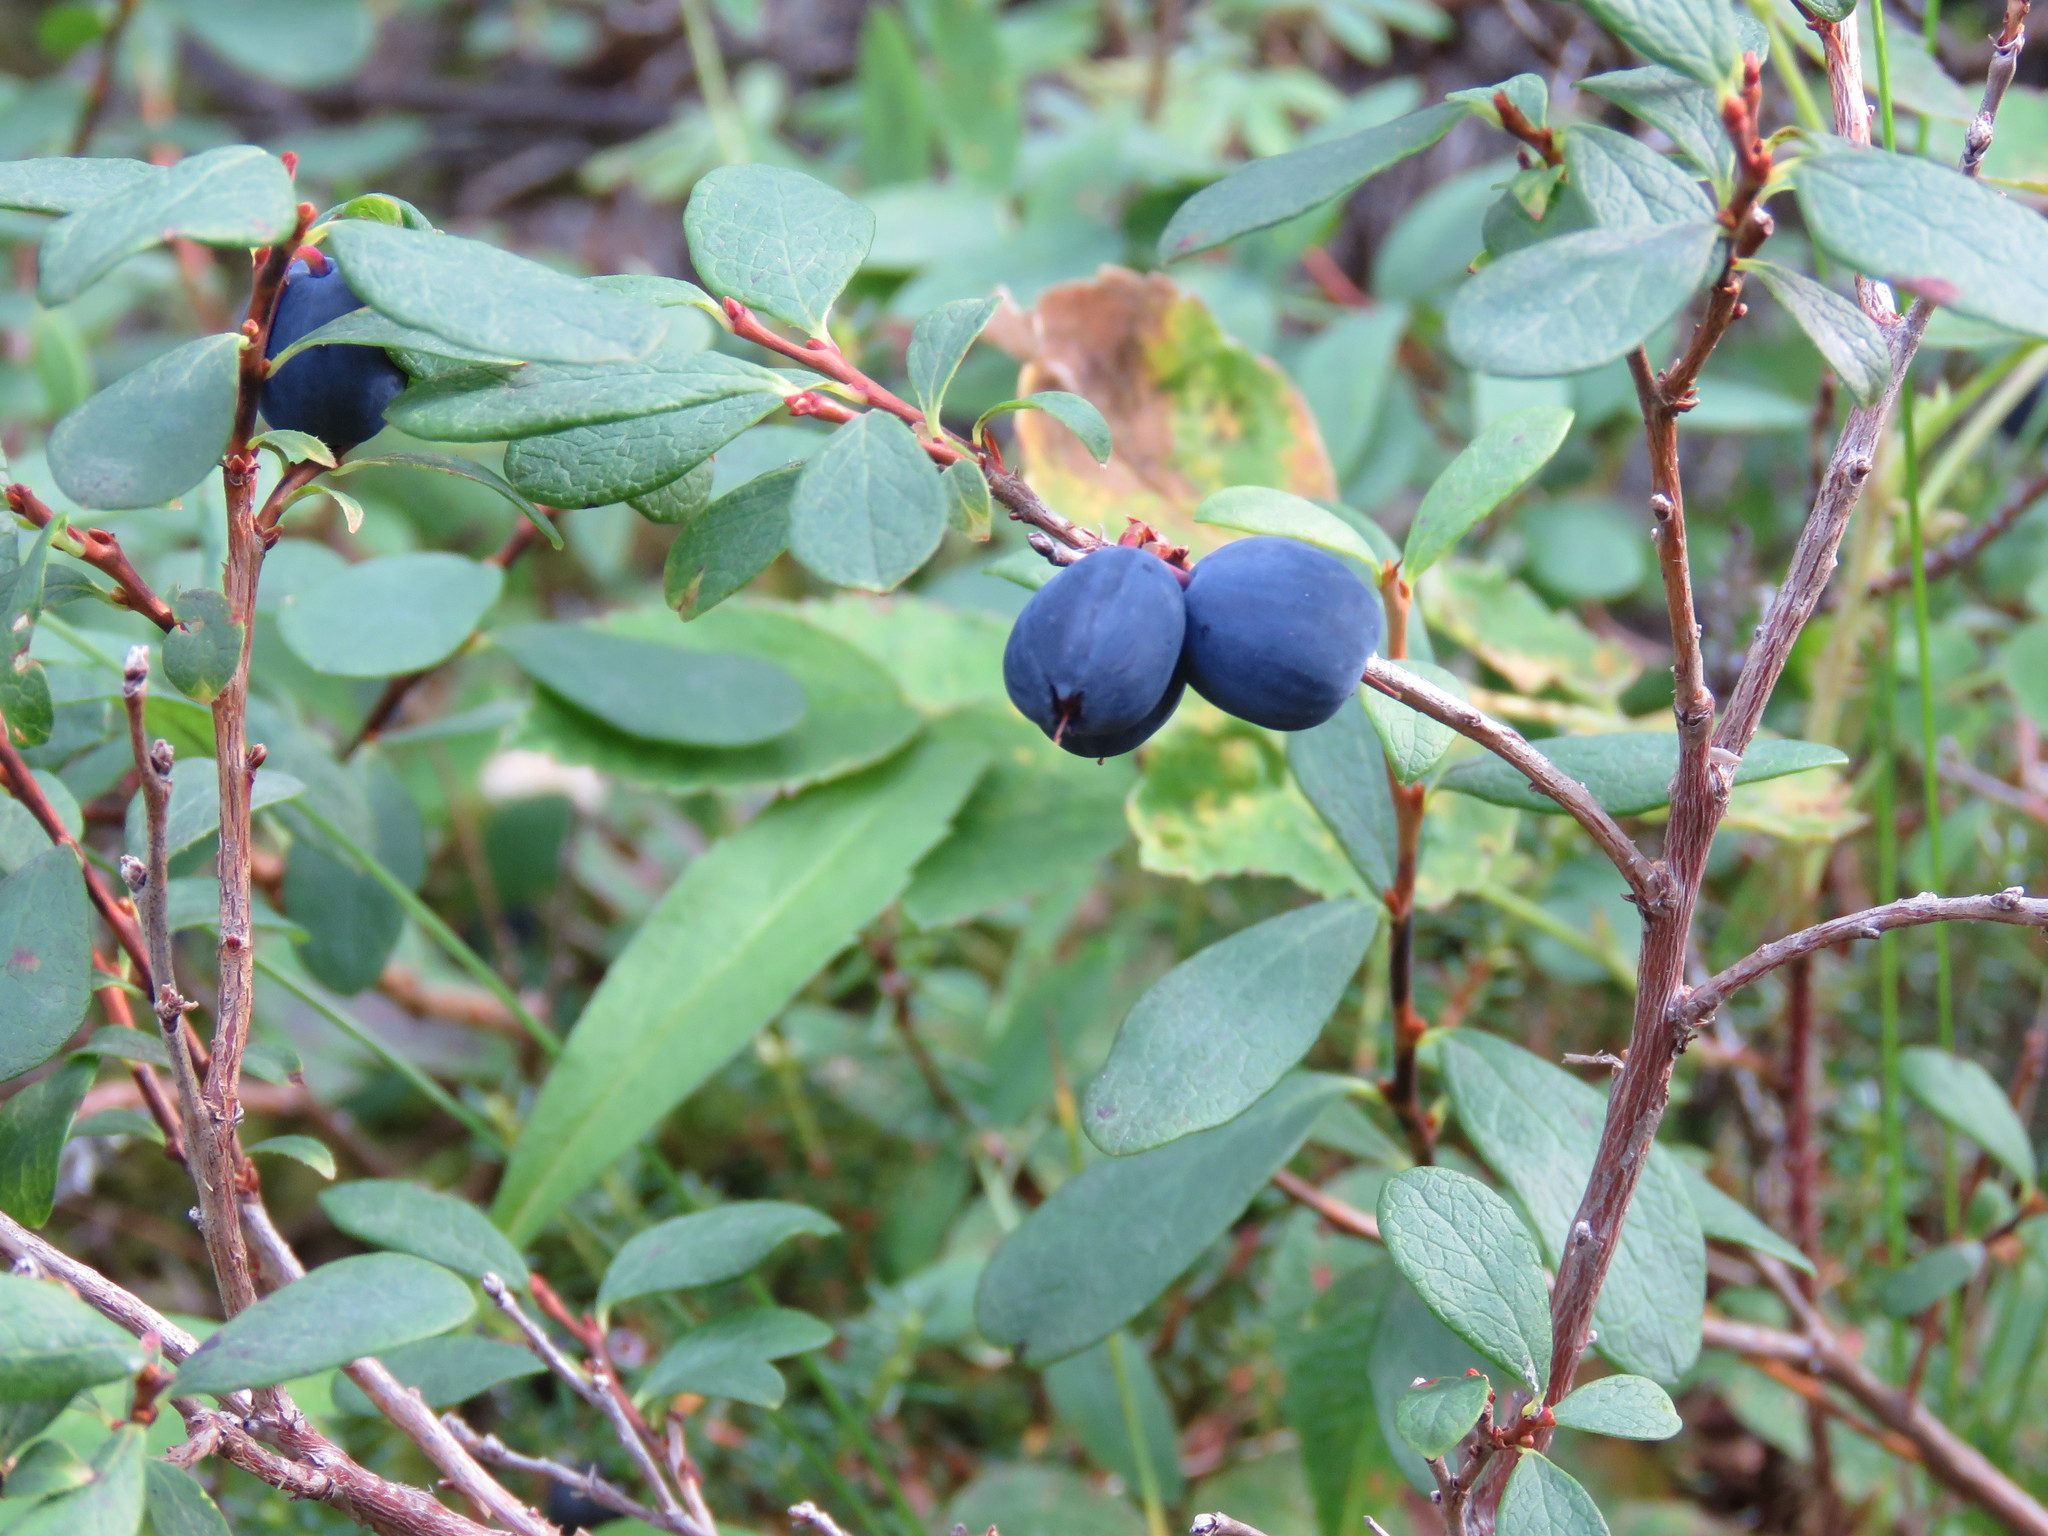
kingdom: Plantae
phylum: Tracheophyta
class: Magnoliopsida
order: Ericales
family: Ericaceae
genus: Vaccinium
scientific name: Vaccinium uliginosum
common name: Bog bilberry
